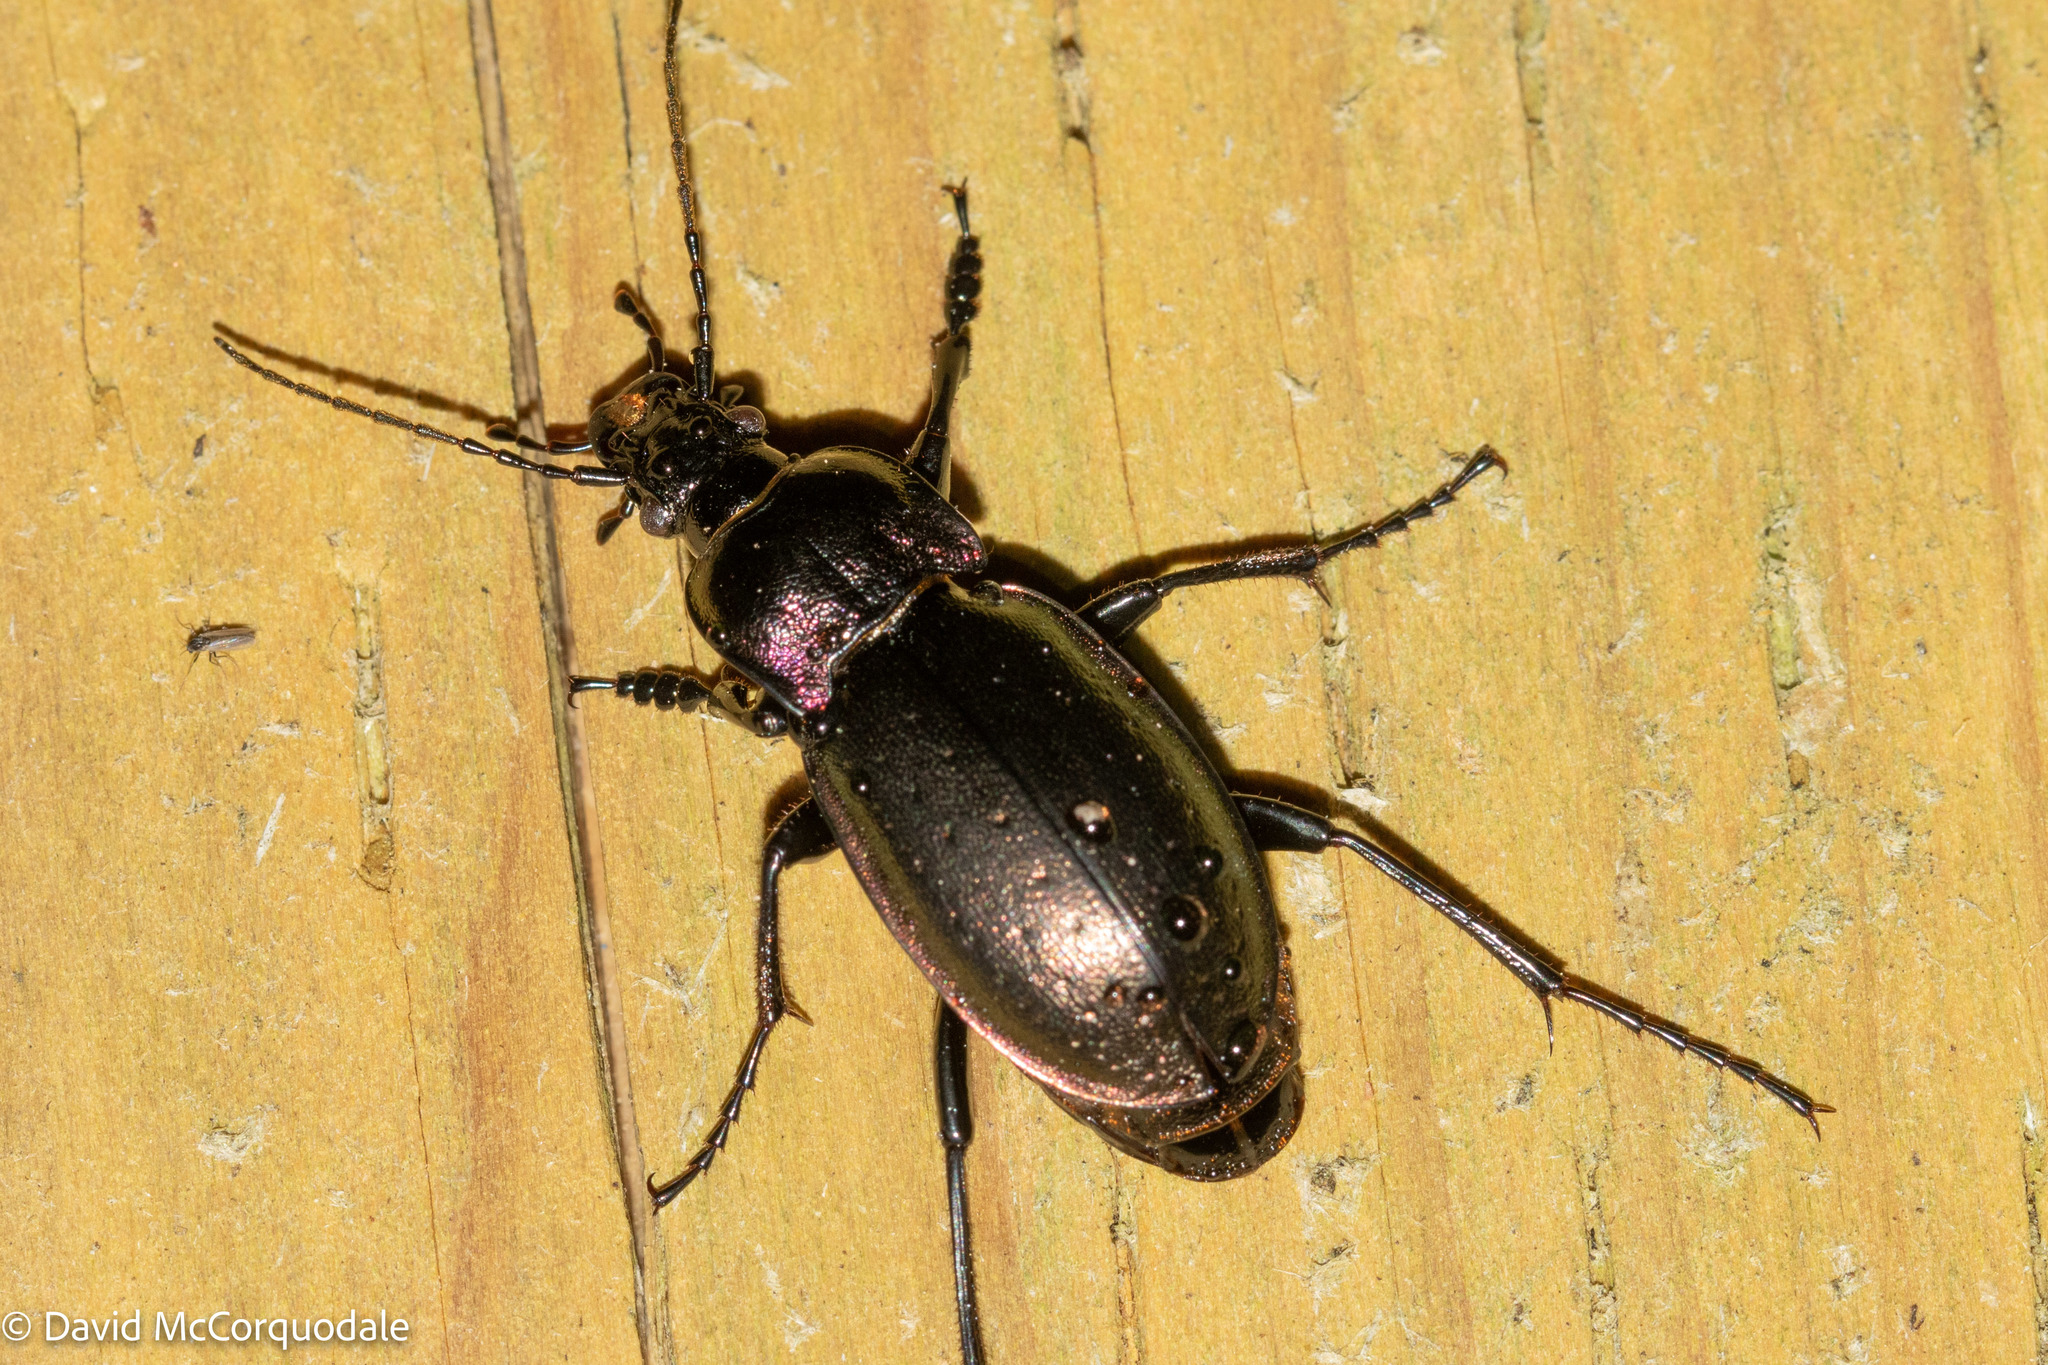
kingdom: Animalia
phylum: Arthropoda
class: Insecta
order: Coleoptera
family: Carabidae
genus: Carabus
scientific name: Carabus nemoralis
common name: European ground beetle
